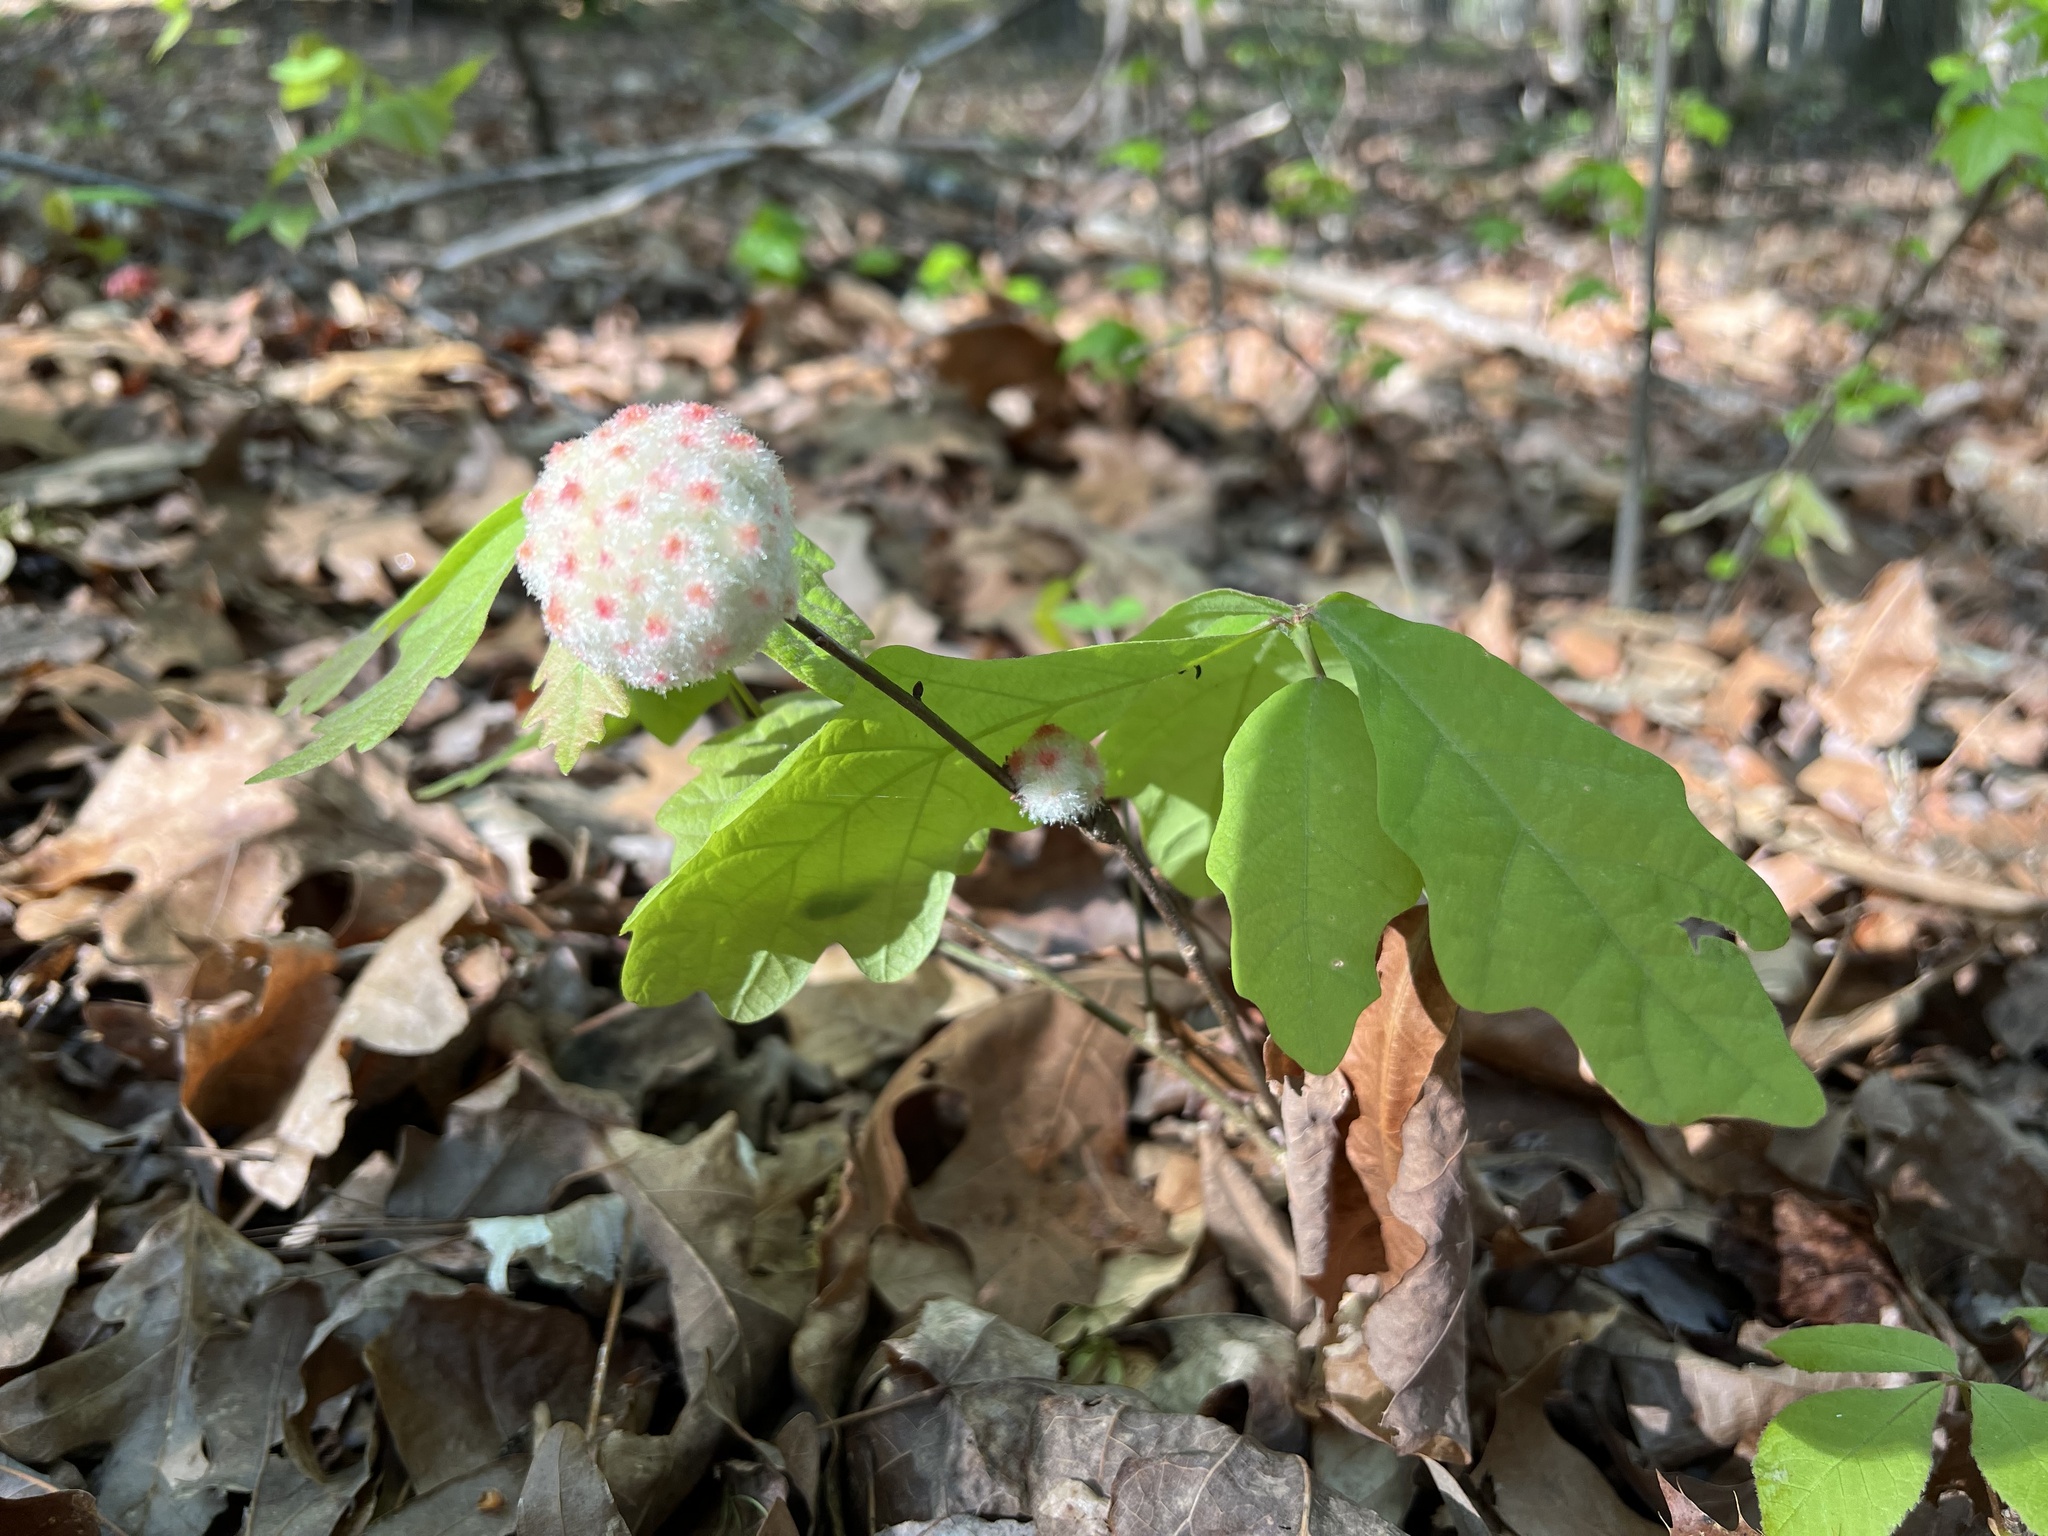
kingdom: Animalia
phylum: Arthropoda
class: Insecta
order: Hymenoptera
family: Cynipidae
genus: Callirhytis
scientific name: Callirhytis
